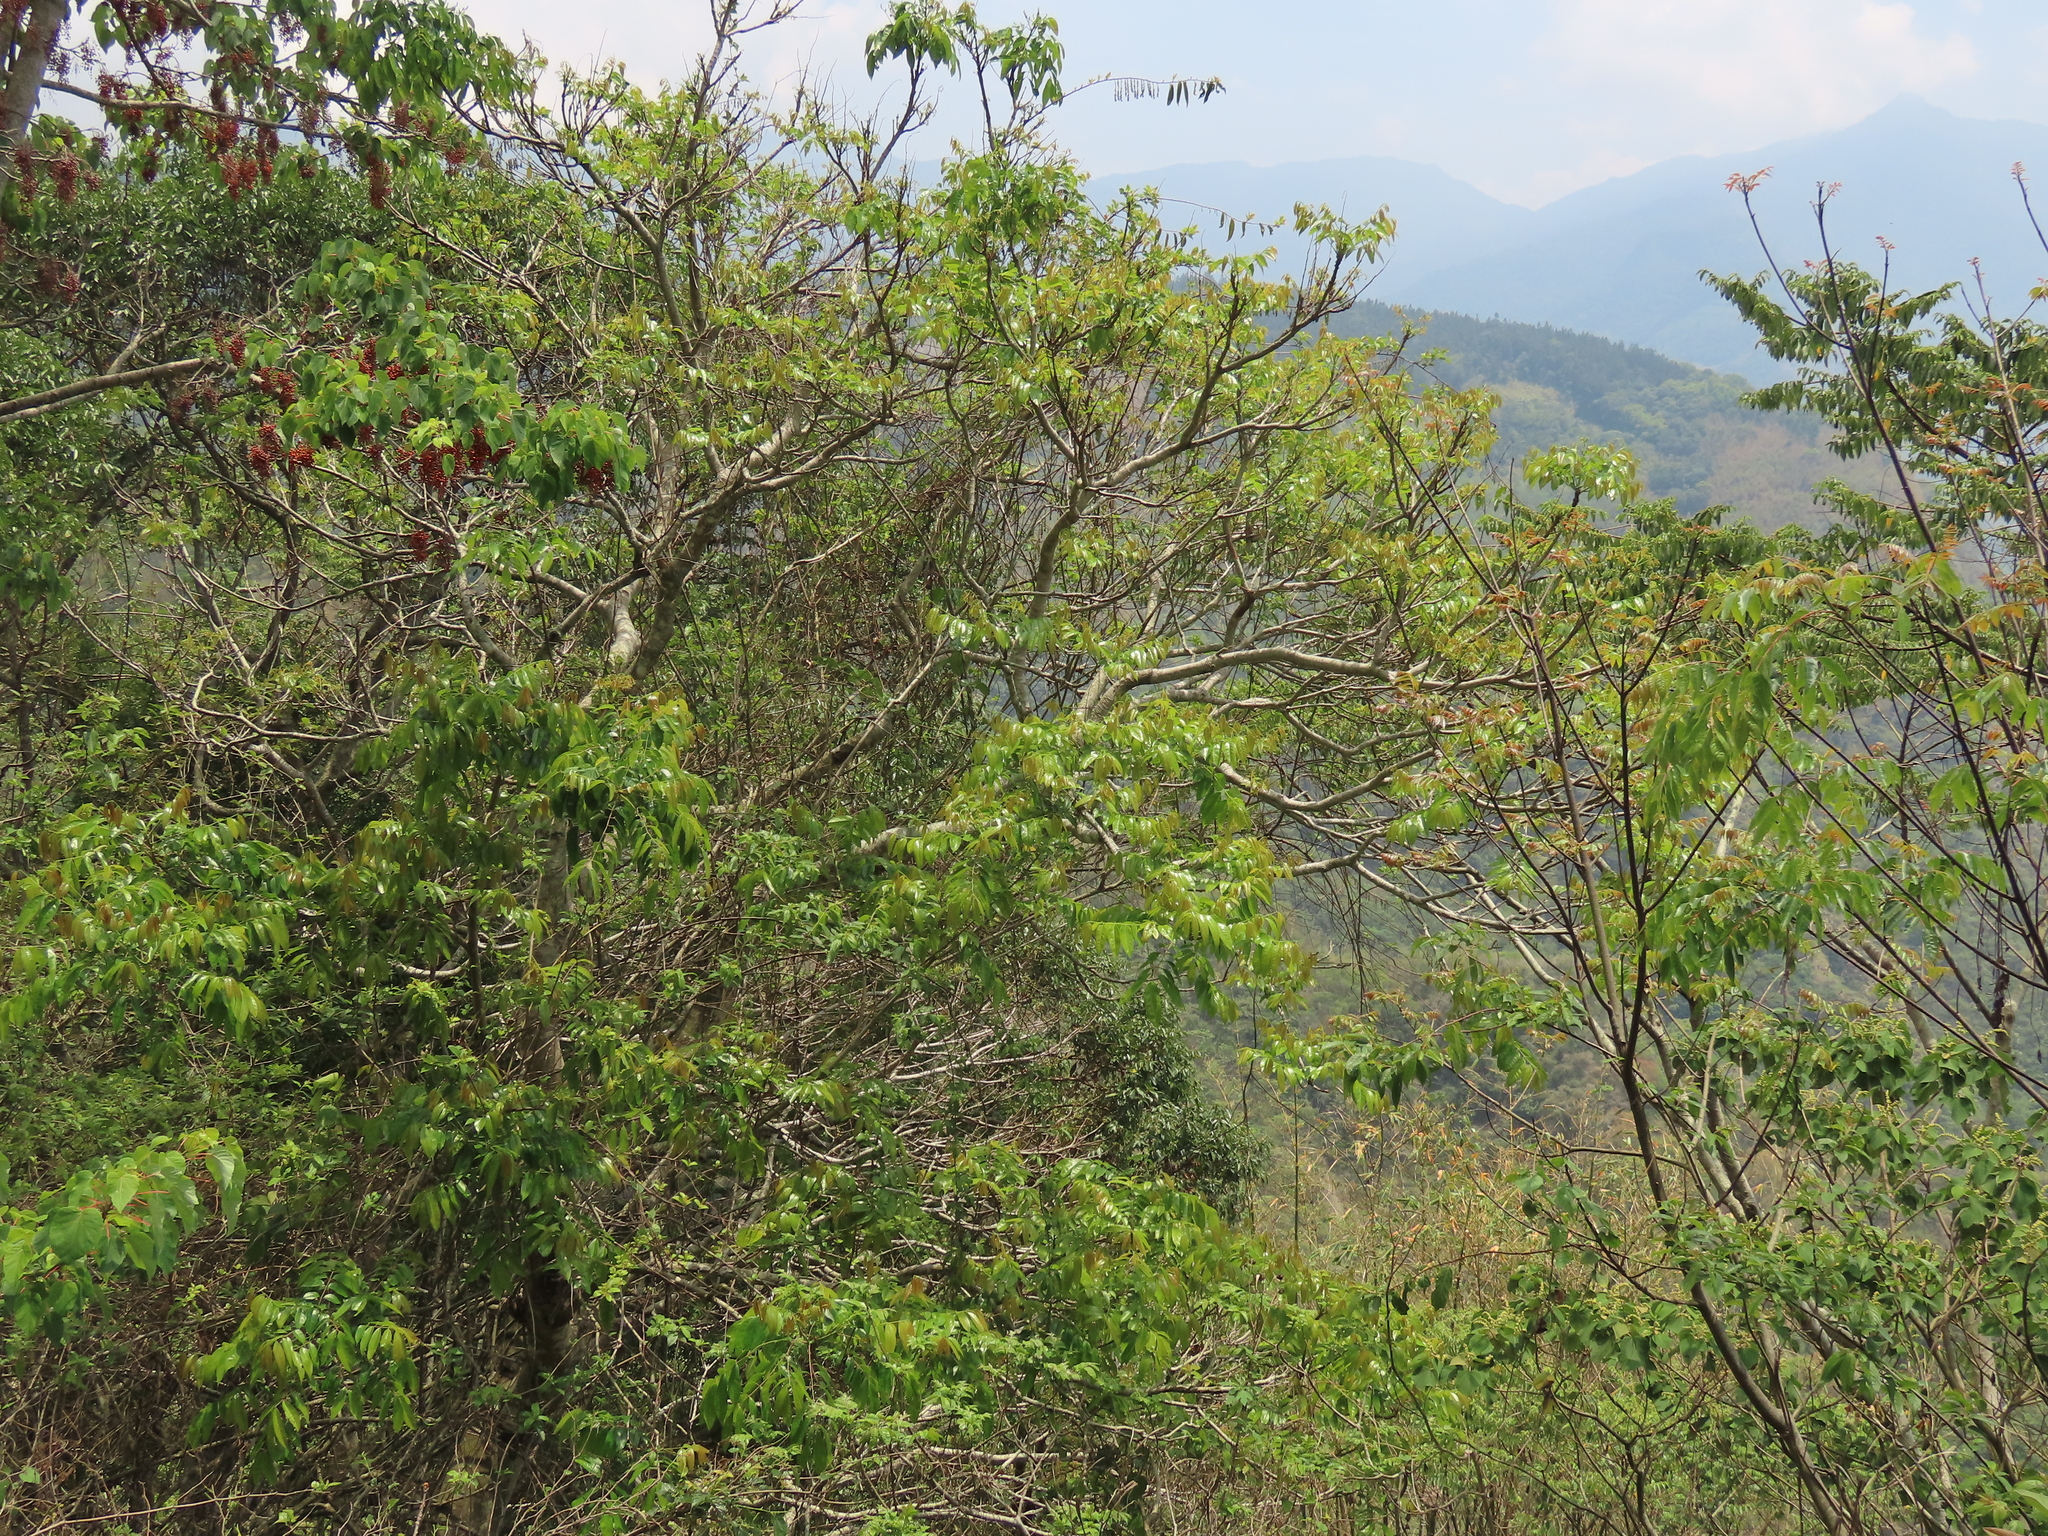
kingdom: Plantae
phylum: Tracheophyta
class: Magnoliopsida
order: Malpighiales
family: Salicaceae
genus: Idesia
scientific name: Idesia polycarpa
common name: Idesia tree
